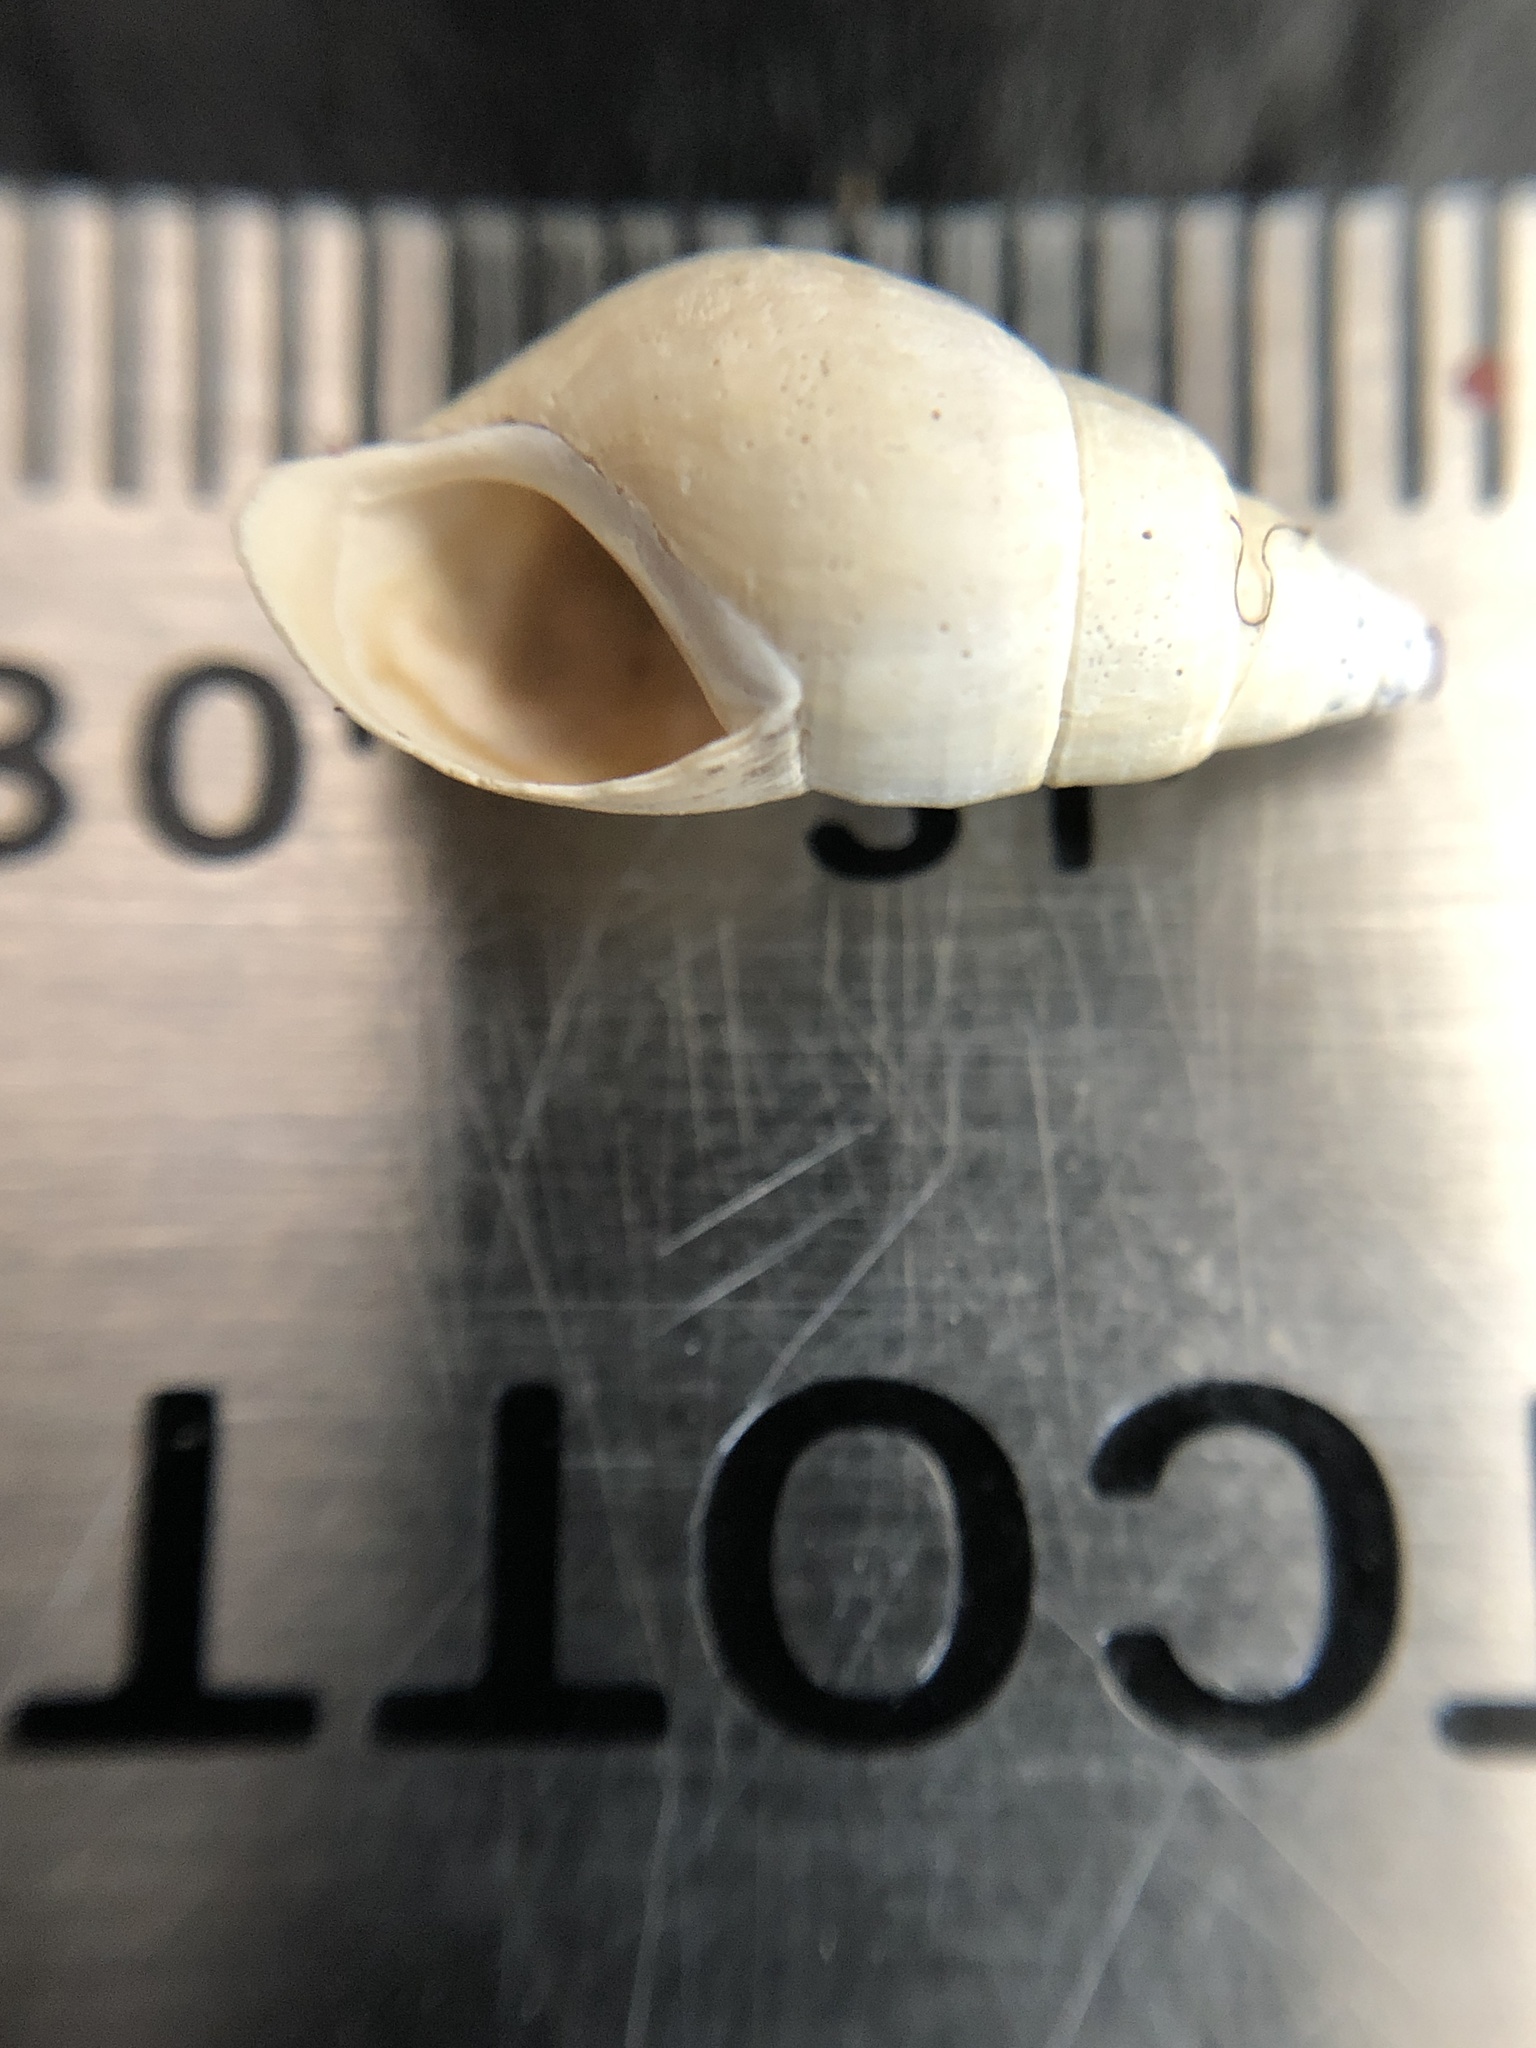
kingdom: Animalia
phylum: Mollusca
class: Gastropoda
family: Pleuroceridae
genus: Elimia
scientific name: Elimia livescens
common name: Liver elimia
